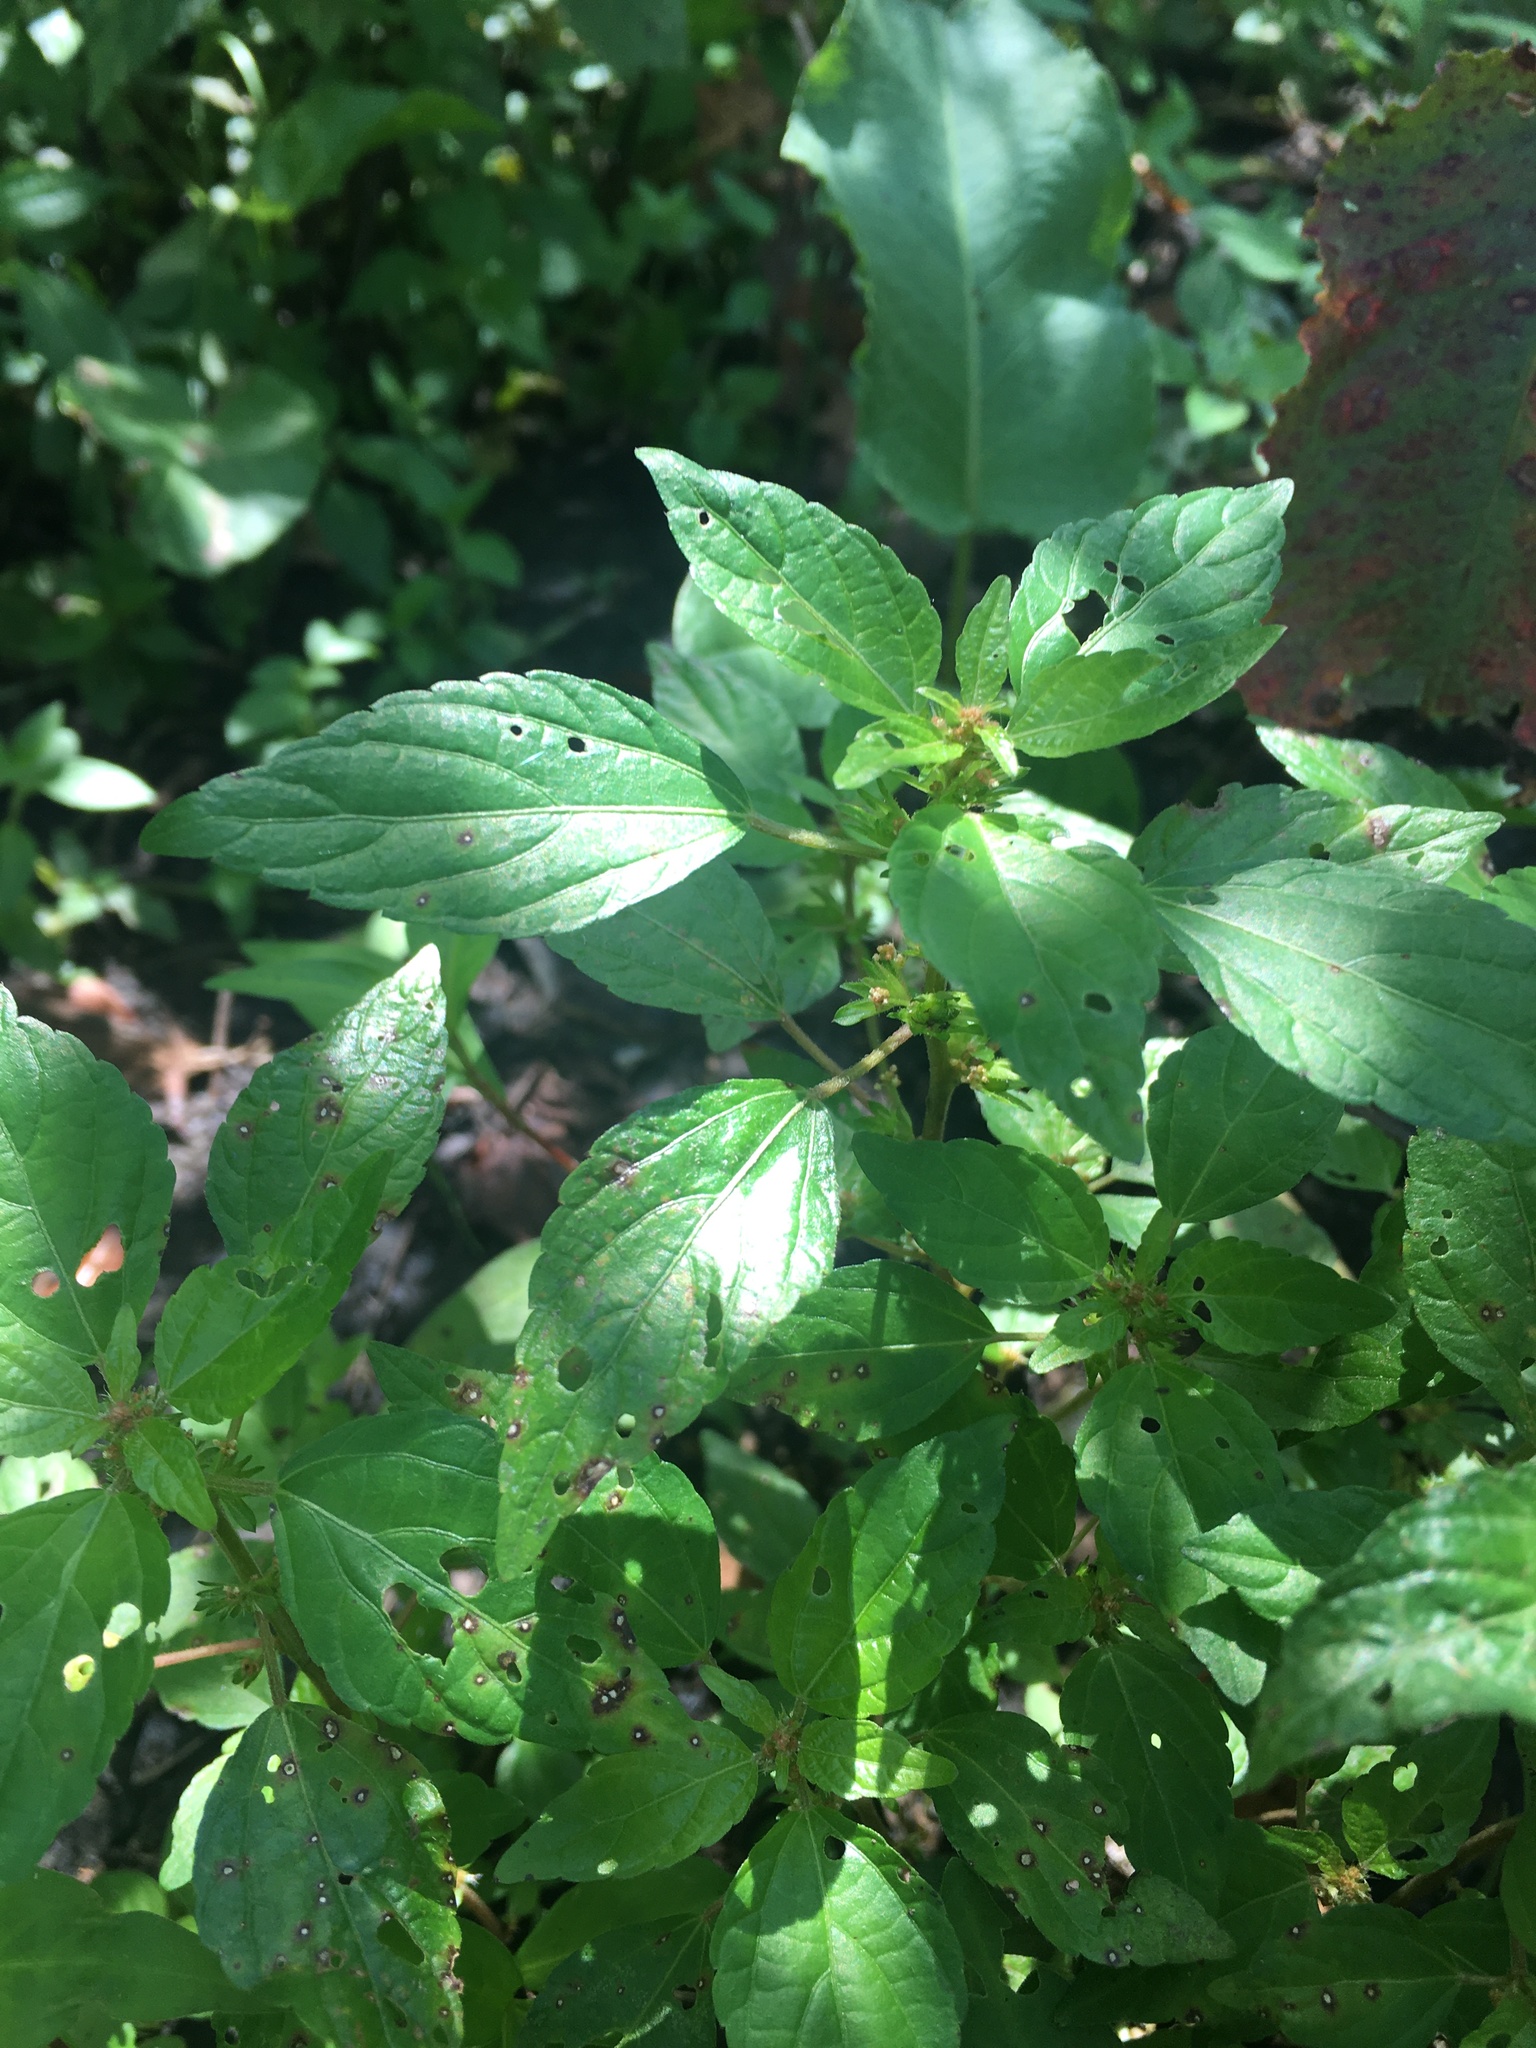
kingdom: Plantae
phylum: Tracheophyta
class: Magnoliopsida
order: Malpighiales
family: Euphorbiaceae
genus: Acalypha
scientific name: Acalypha rhomboidea
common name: Rhombic copperleaf
